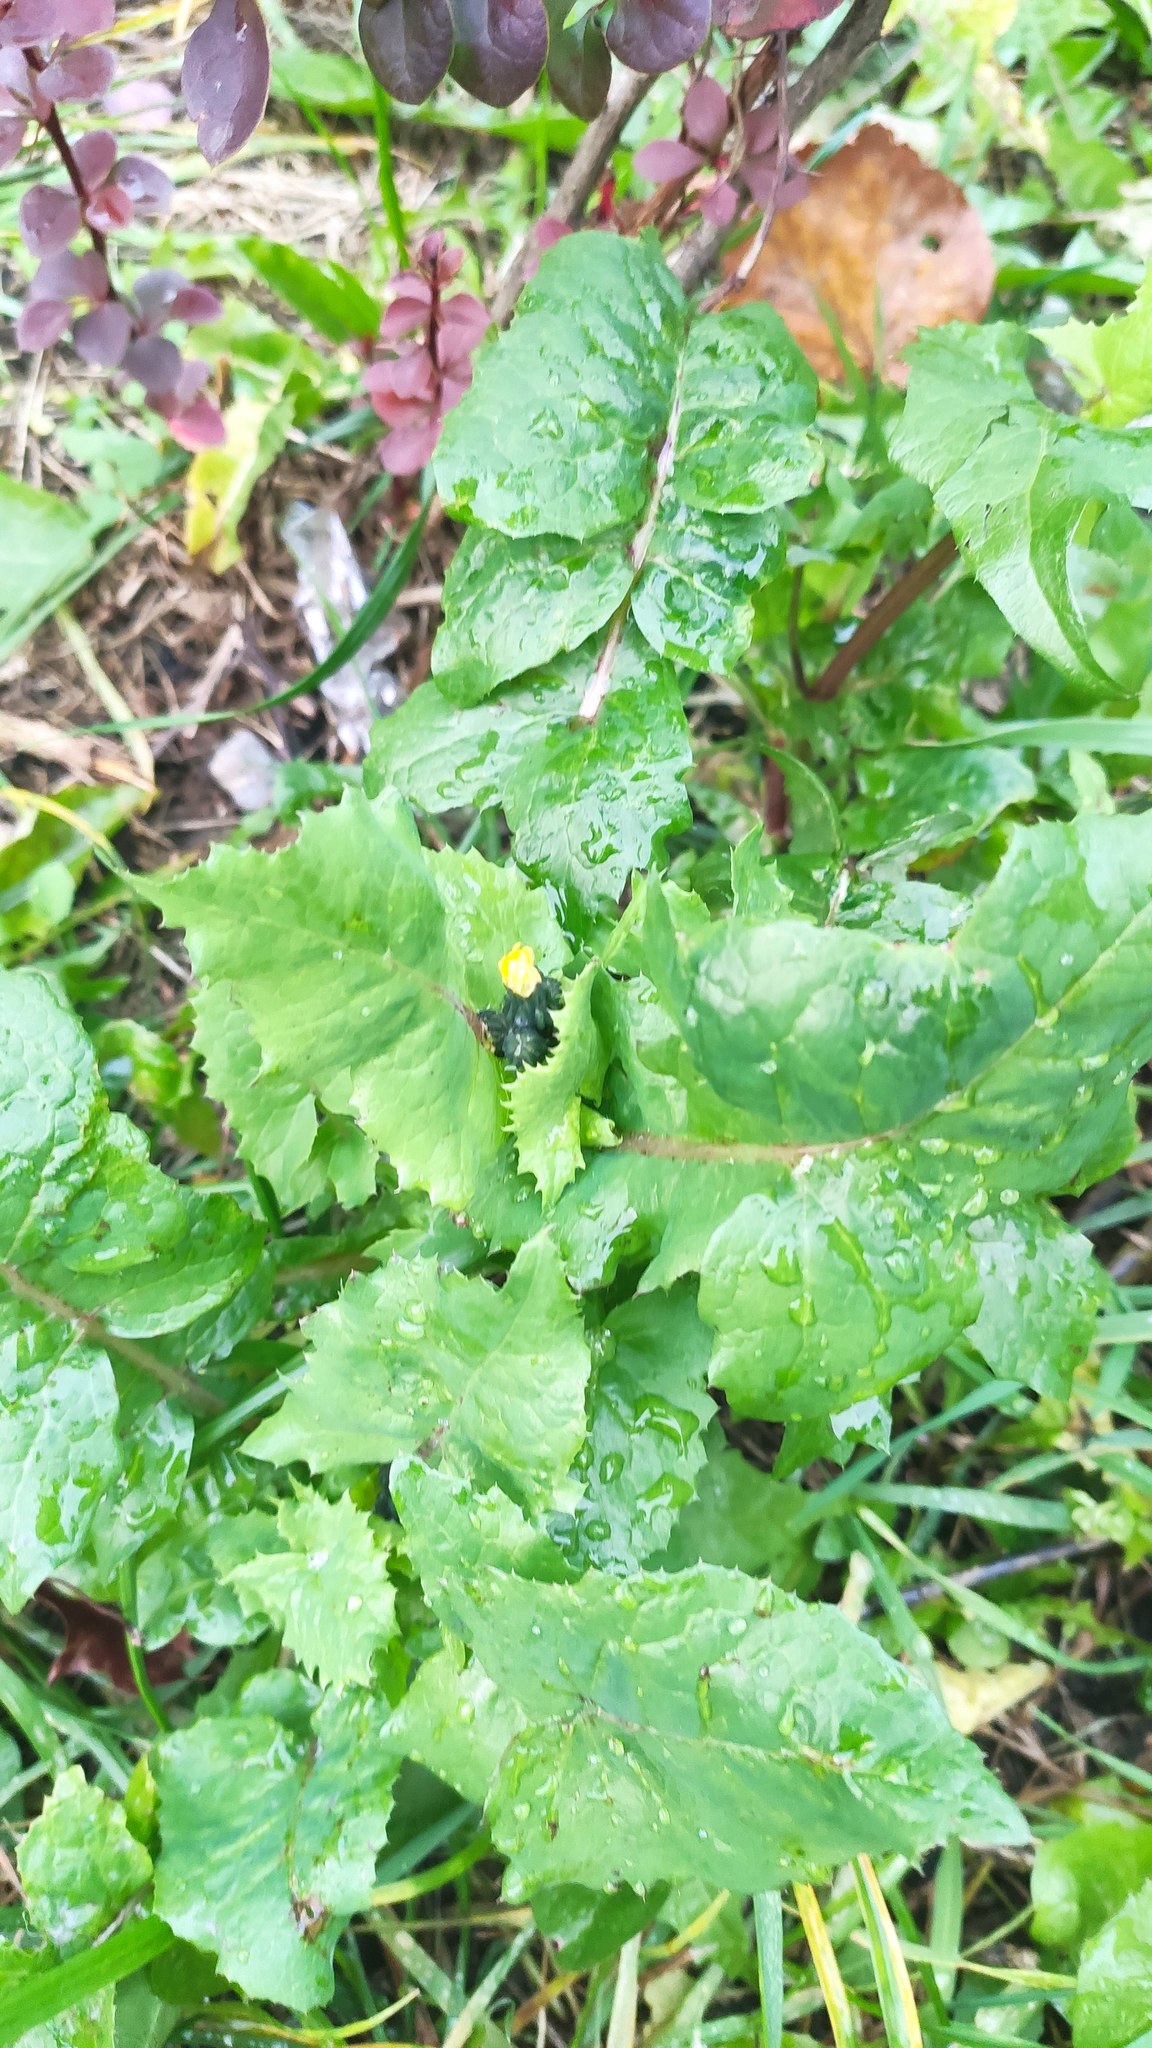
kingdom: Plantae
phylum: Tracheophyta
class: Magnoliopsida
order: Asterales
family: Asteraceae
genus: Sonchus
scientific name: Sonchus oleraceus
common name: Common sowthistle
